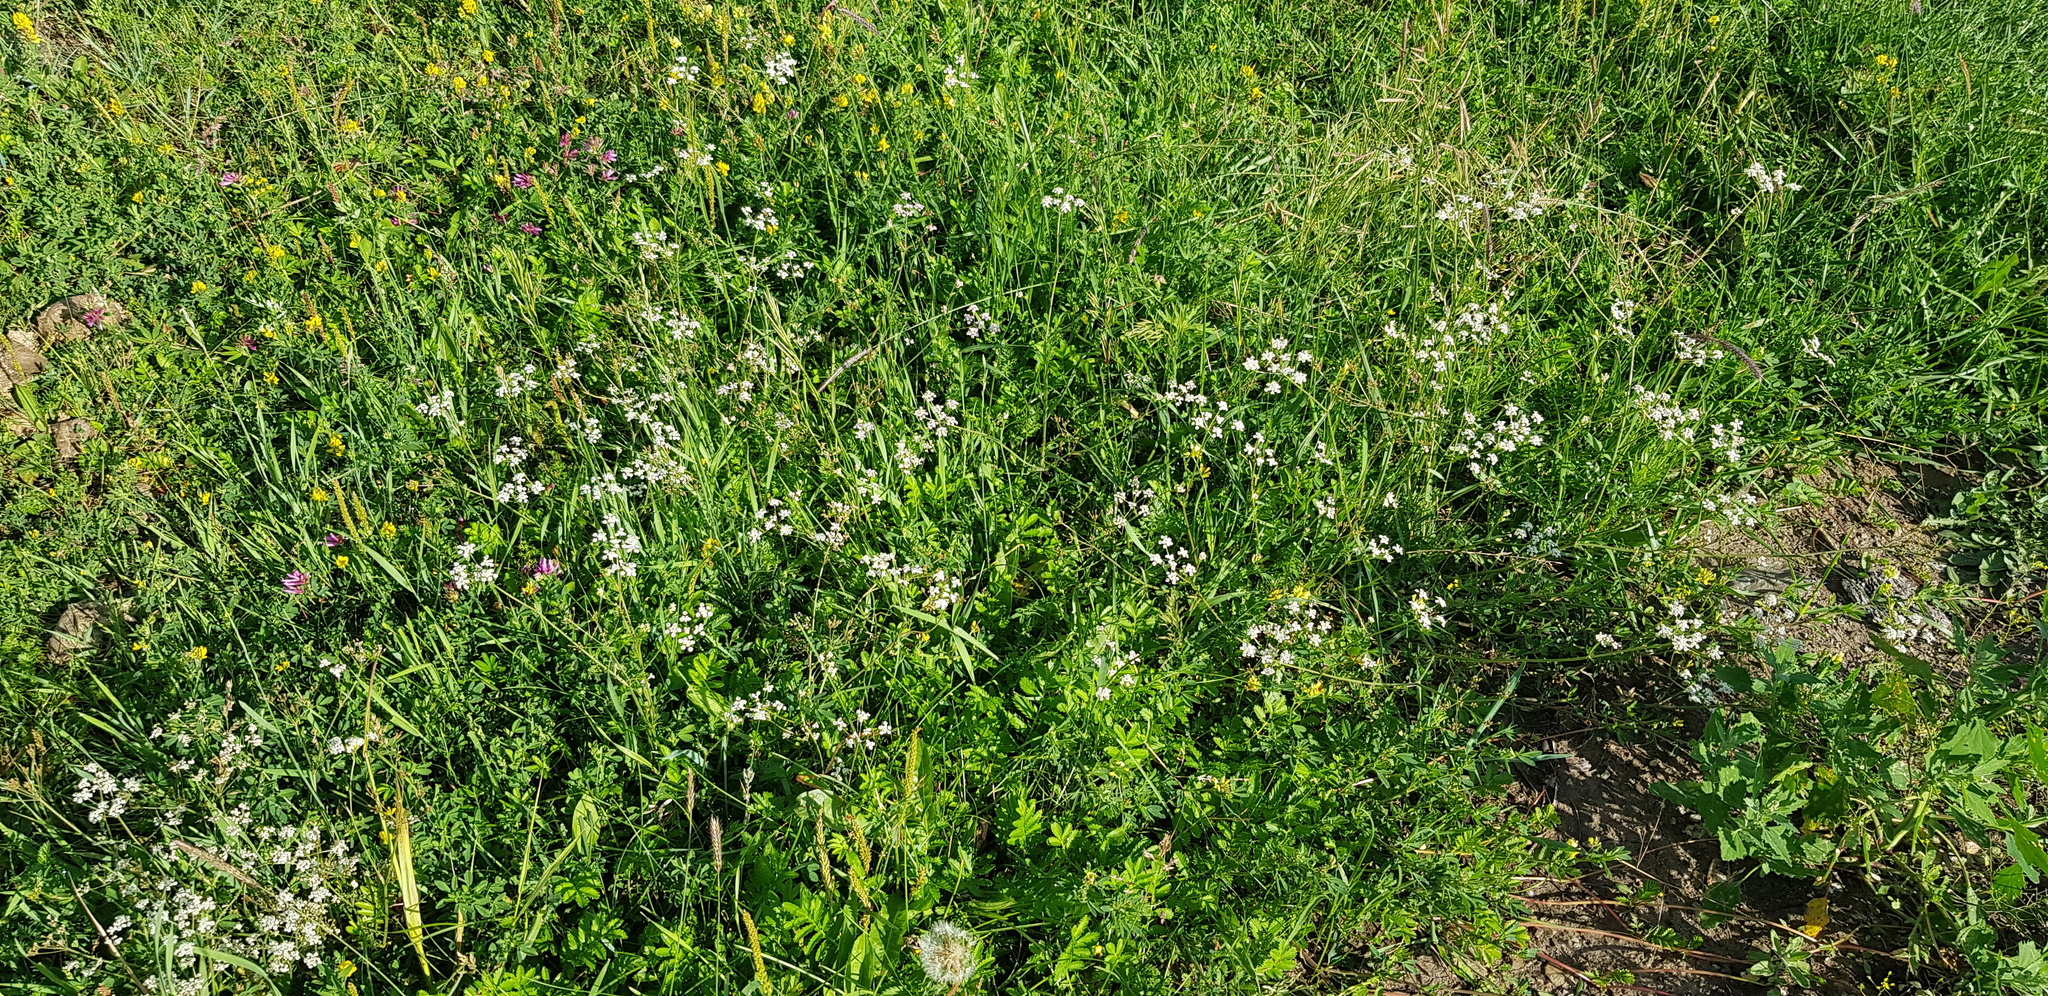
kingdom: Plantae
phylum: Tracheophyta
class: Magnoliopsida
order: Apiales
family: Apiaceae
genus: Carum
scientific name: Carum carvi
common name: Caraway
